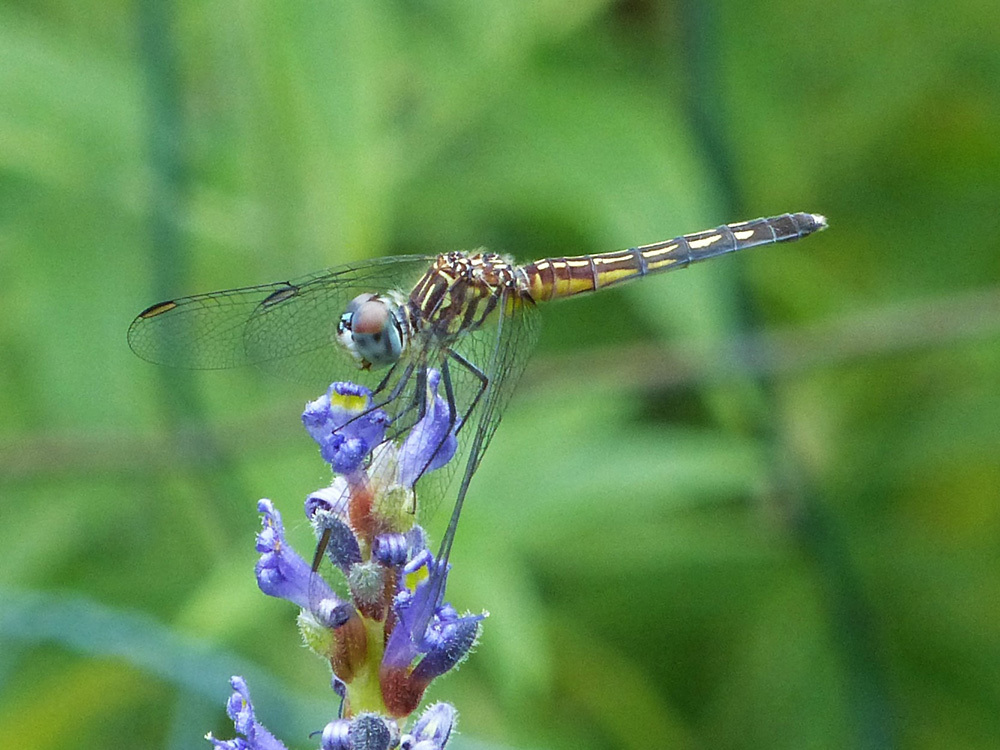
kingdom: Animalia
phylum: Arthropoda
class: Insecta
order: Odonata
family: Libellulidae
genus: Pachydiplax
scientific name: Pachydiplax longipennis
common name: Blue dasher
